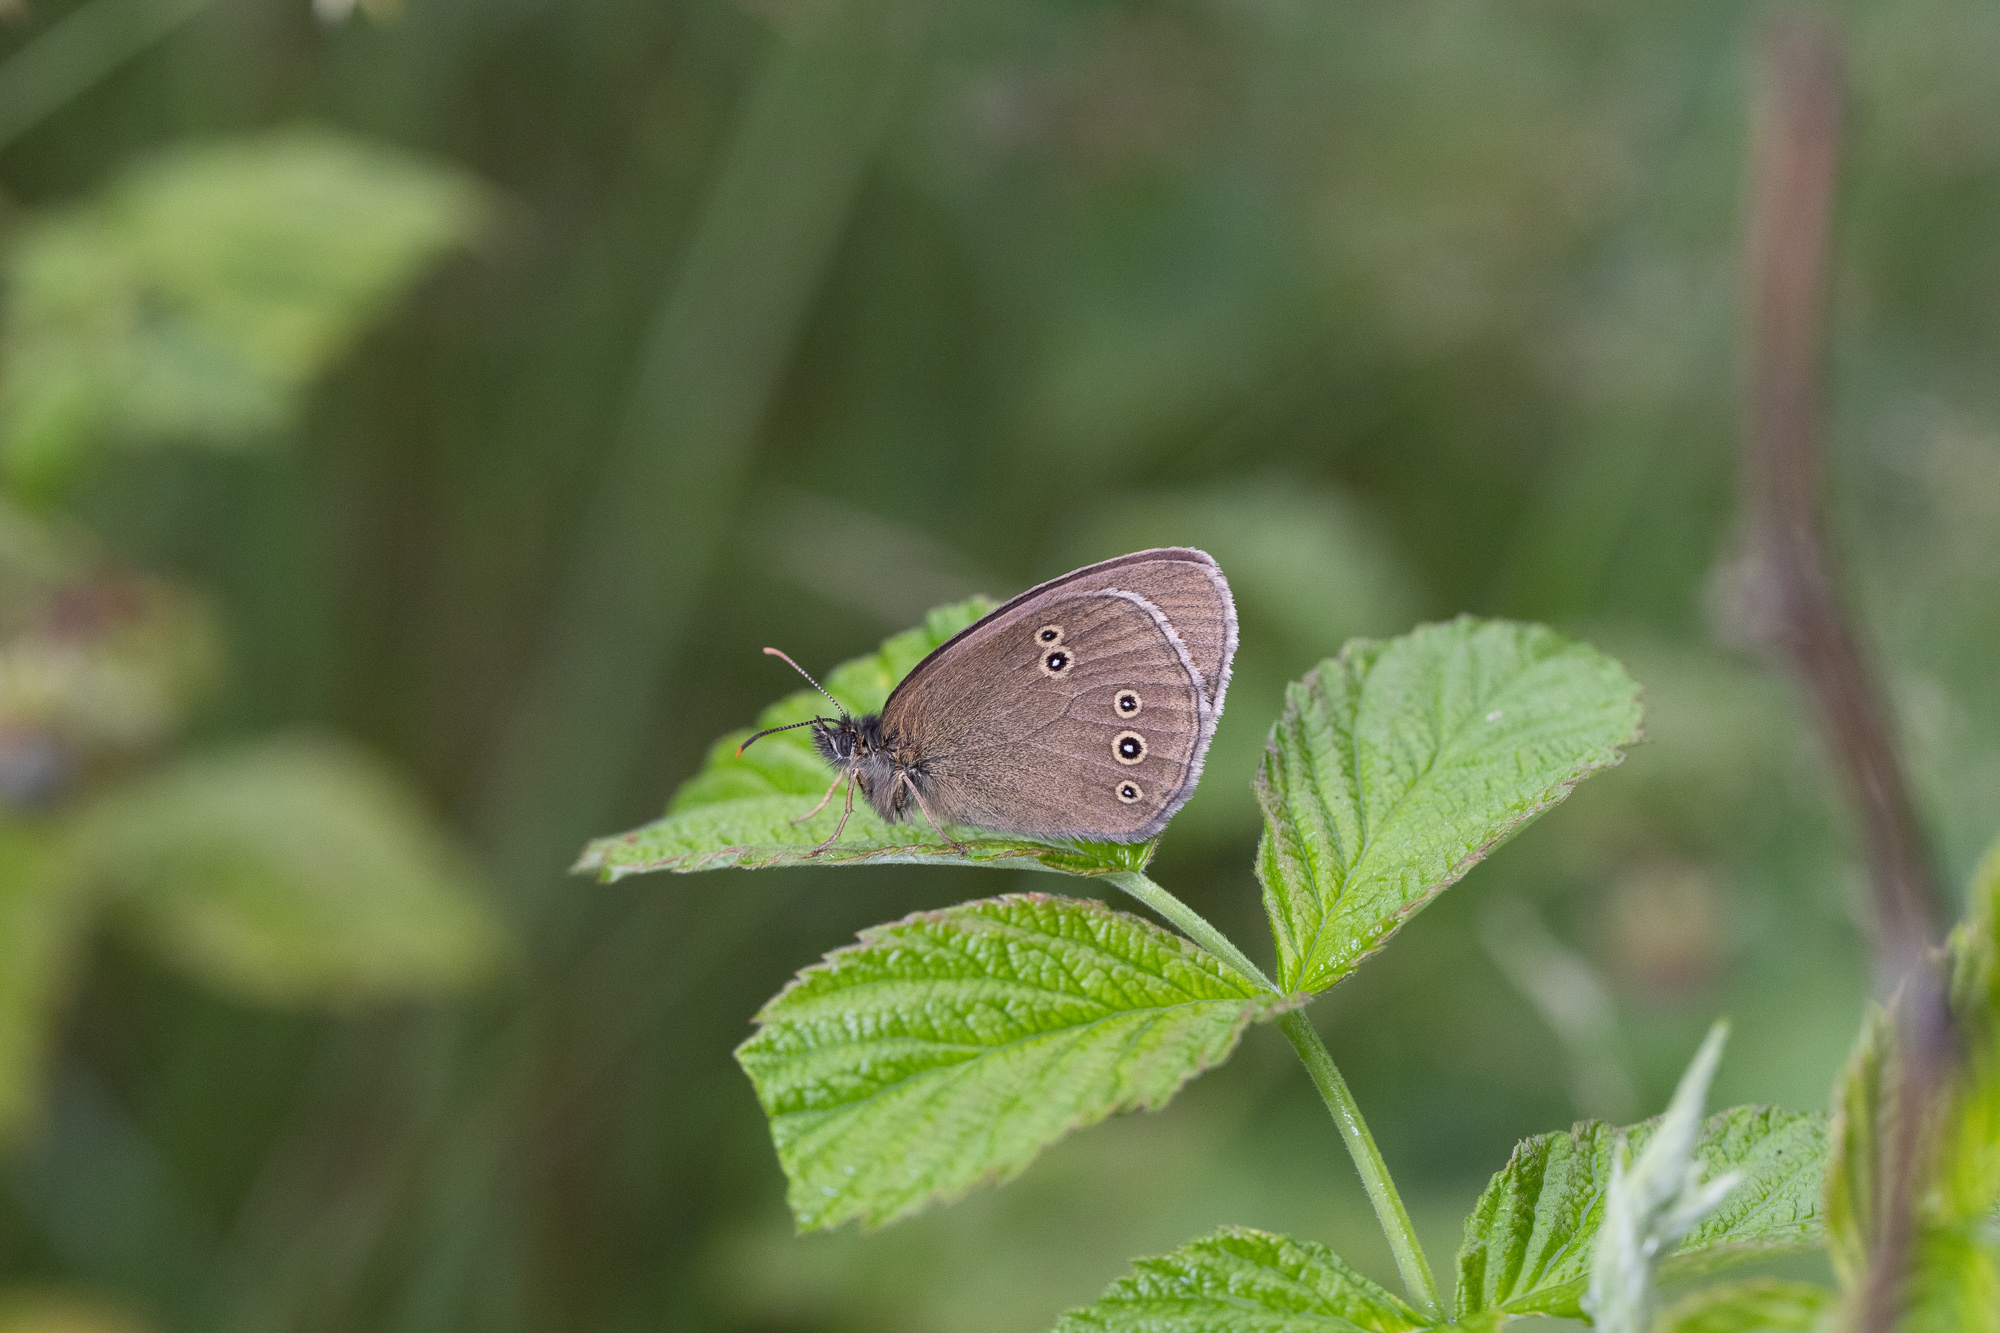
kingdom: Animalia
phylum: Arthropoda
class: Insecta
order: Lepidoptera
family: Nymphalidae
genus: Aphantopus
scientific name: Aphantopus hyperantus
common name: Ringlet
